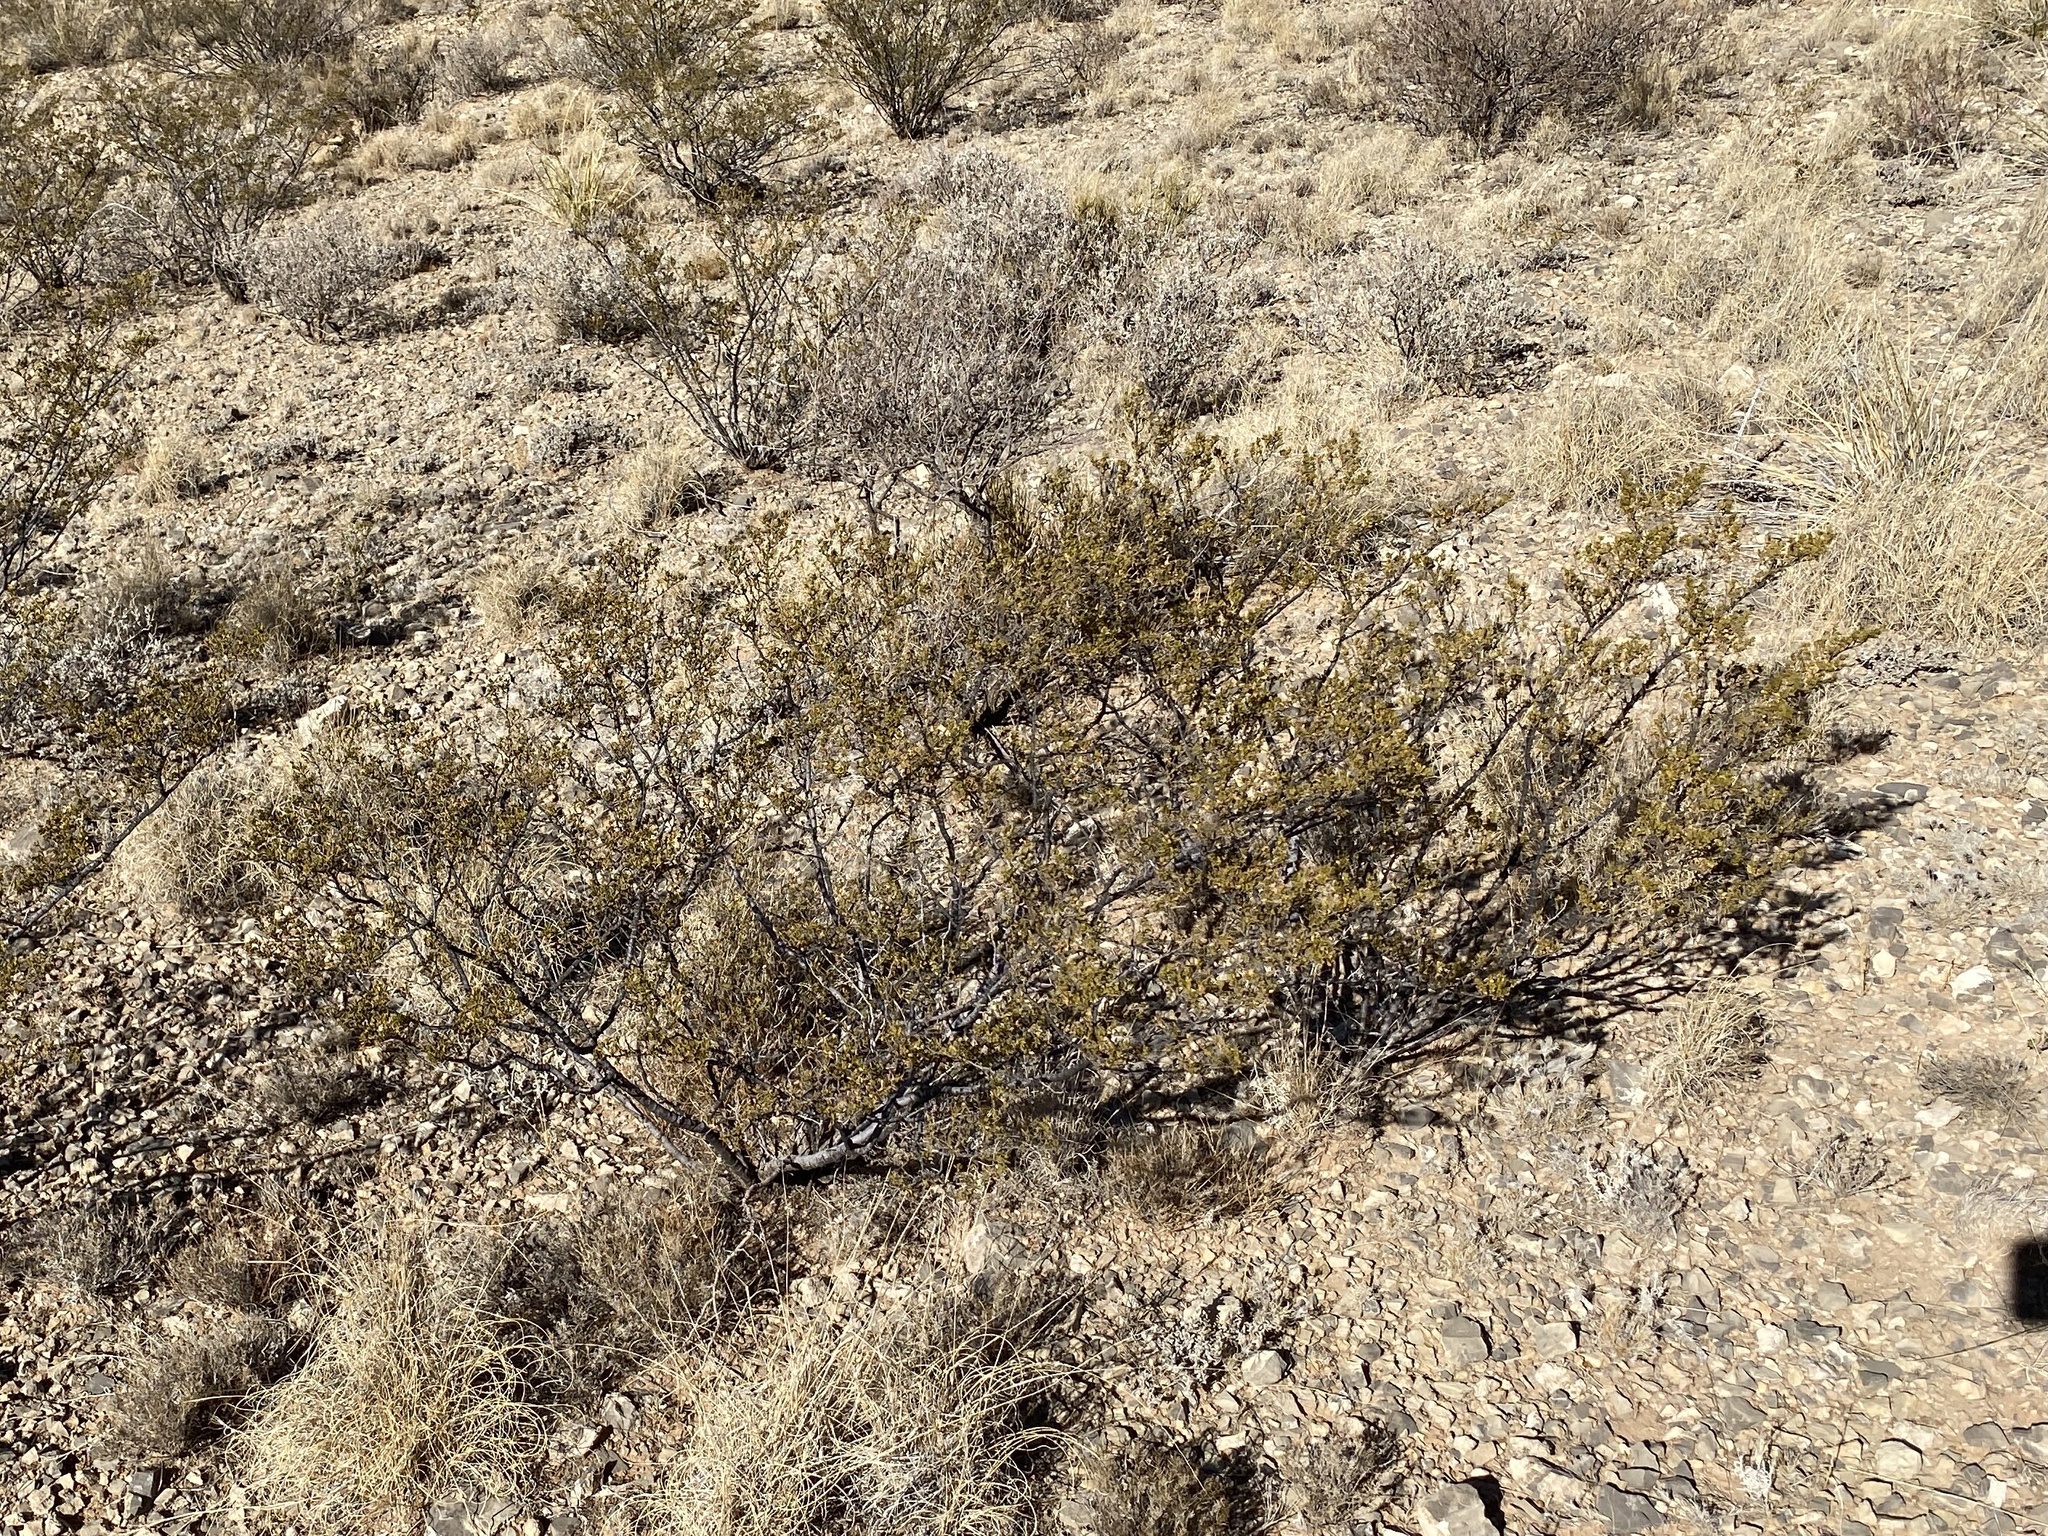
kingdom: Plantae
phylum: Tracheophyta
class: Magnoliopsida
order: Zygophyllales
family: Zygophyllaceae
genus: Larrea
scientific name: Larrea tridentata
